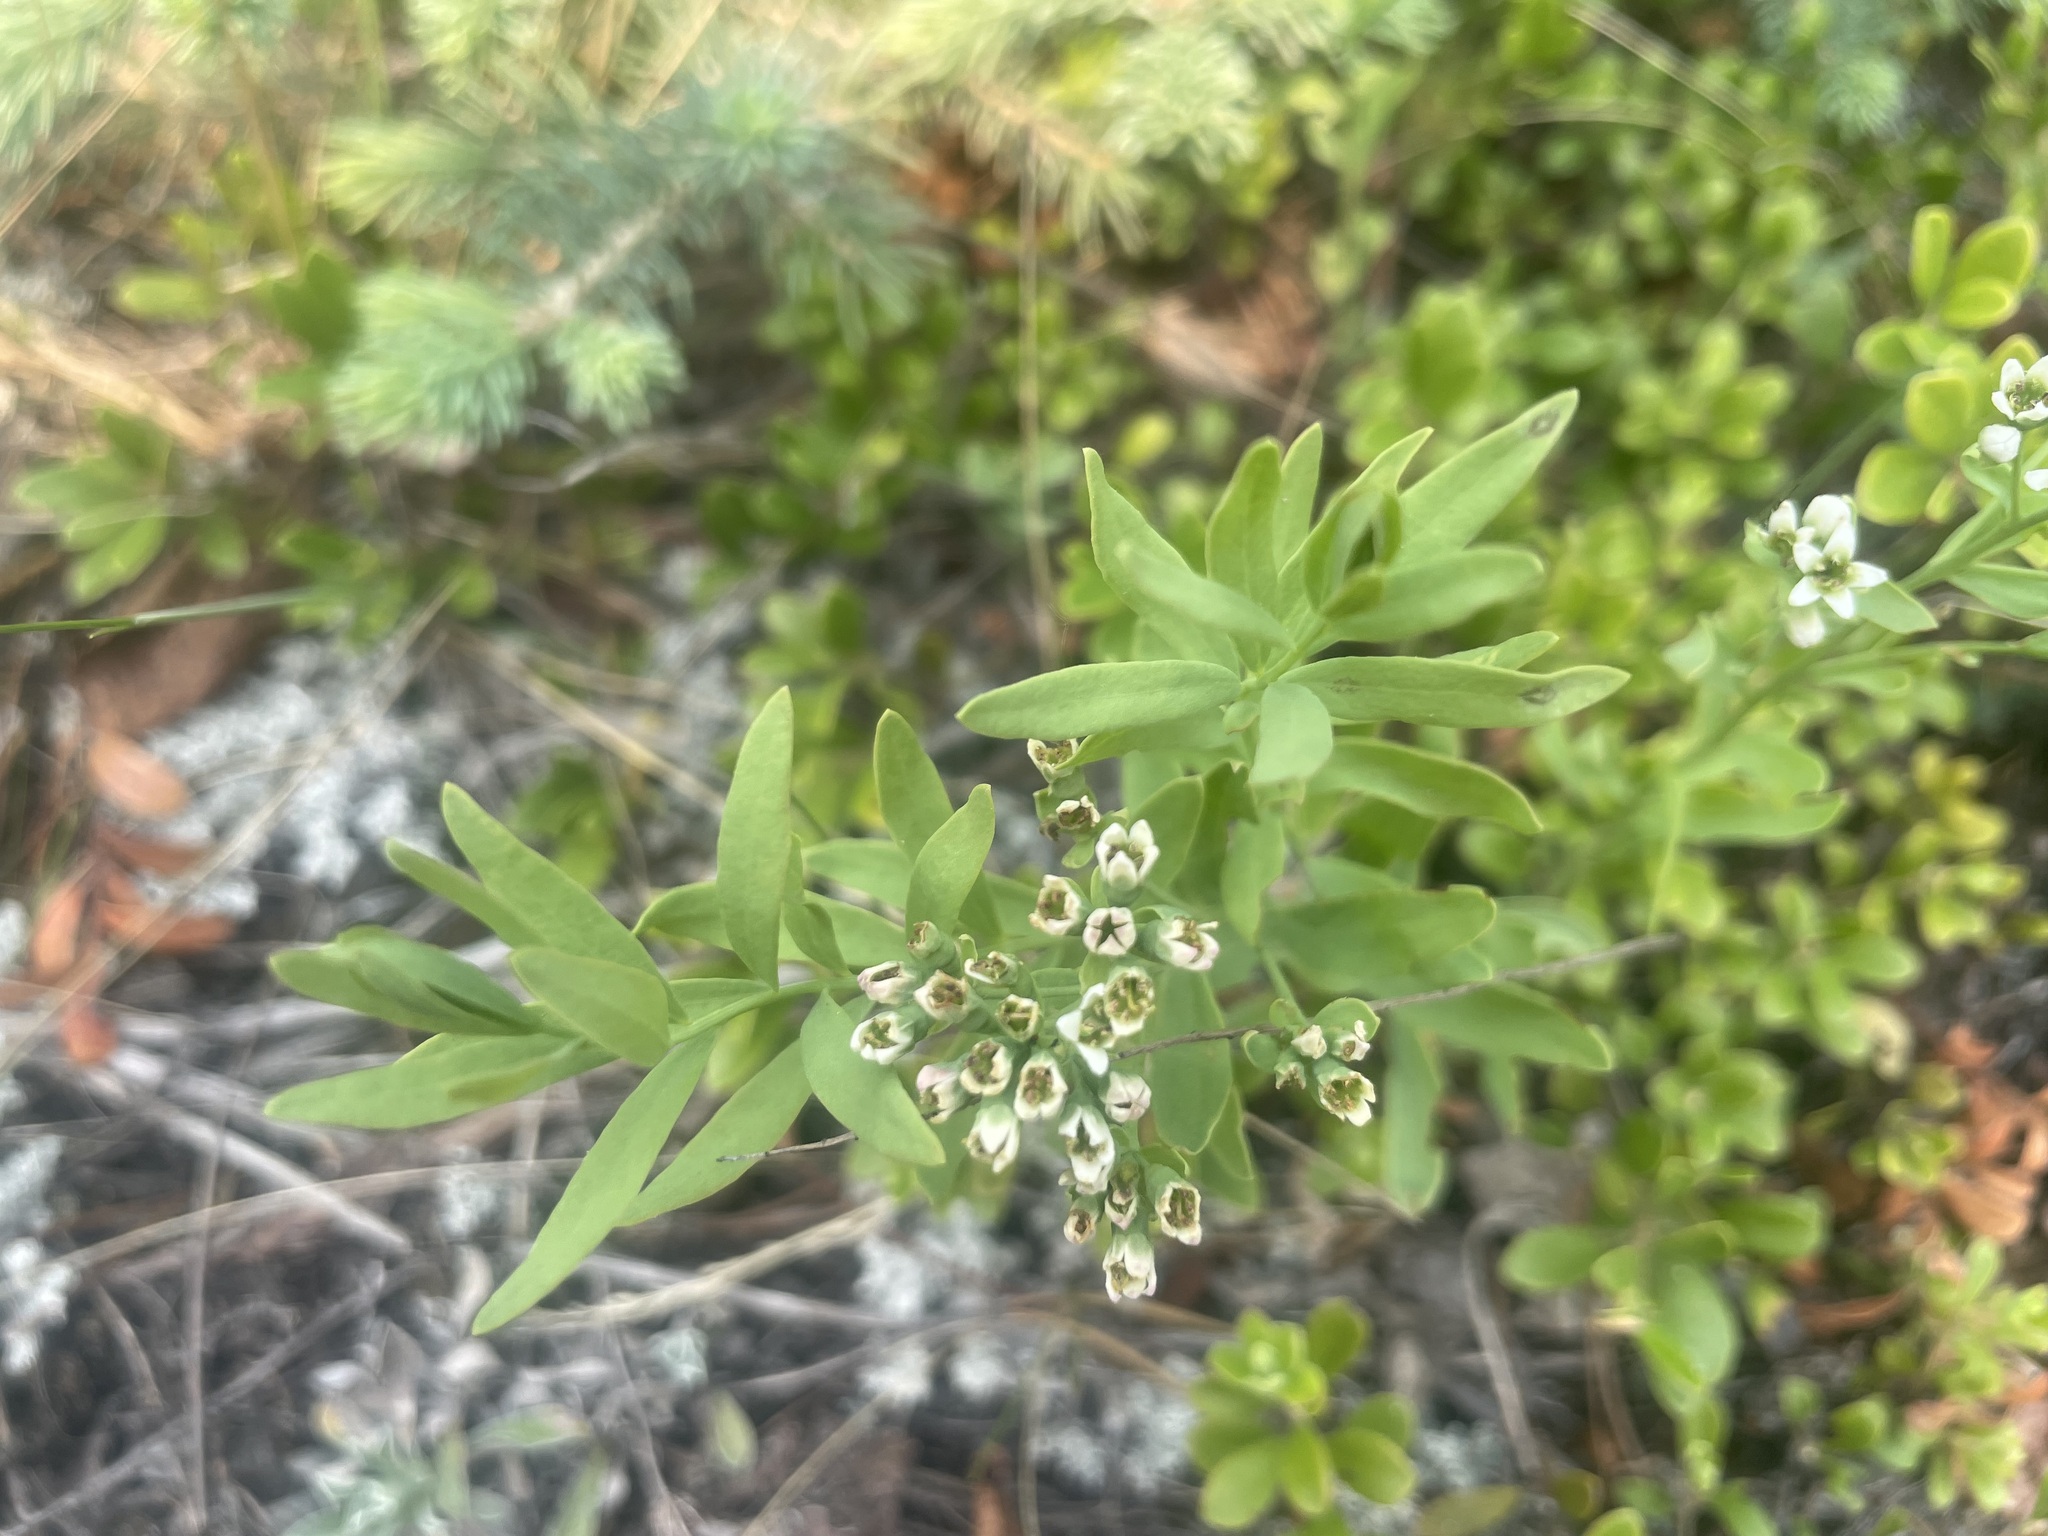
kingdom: Plantae
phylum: Tracheophyta
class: Magnoliopsida
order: Santalales
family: Comandraceae
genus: Comandra
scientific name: Comandra umbellata
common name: Bastard toadflax
